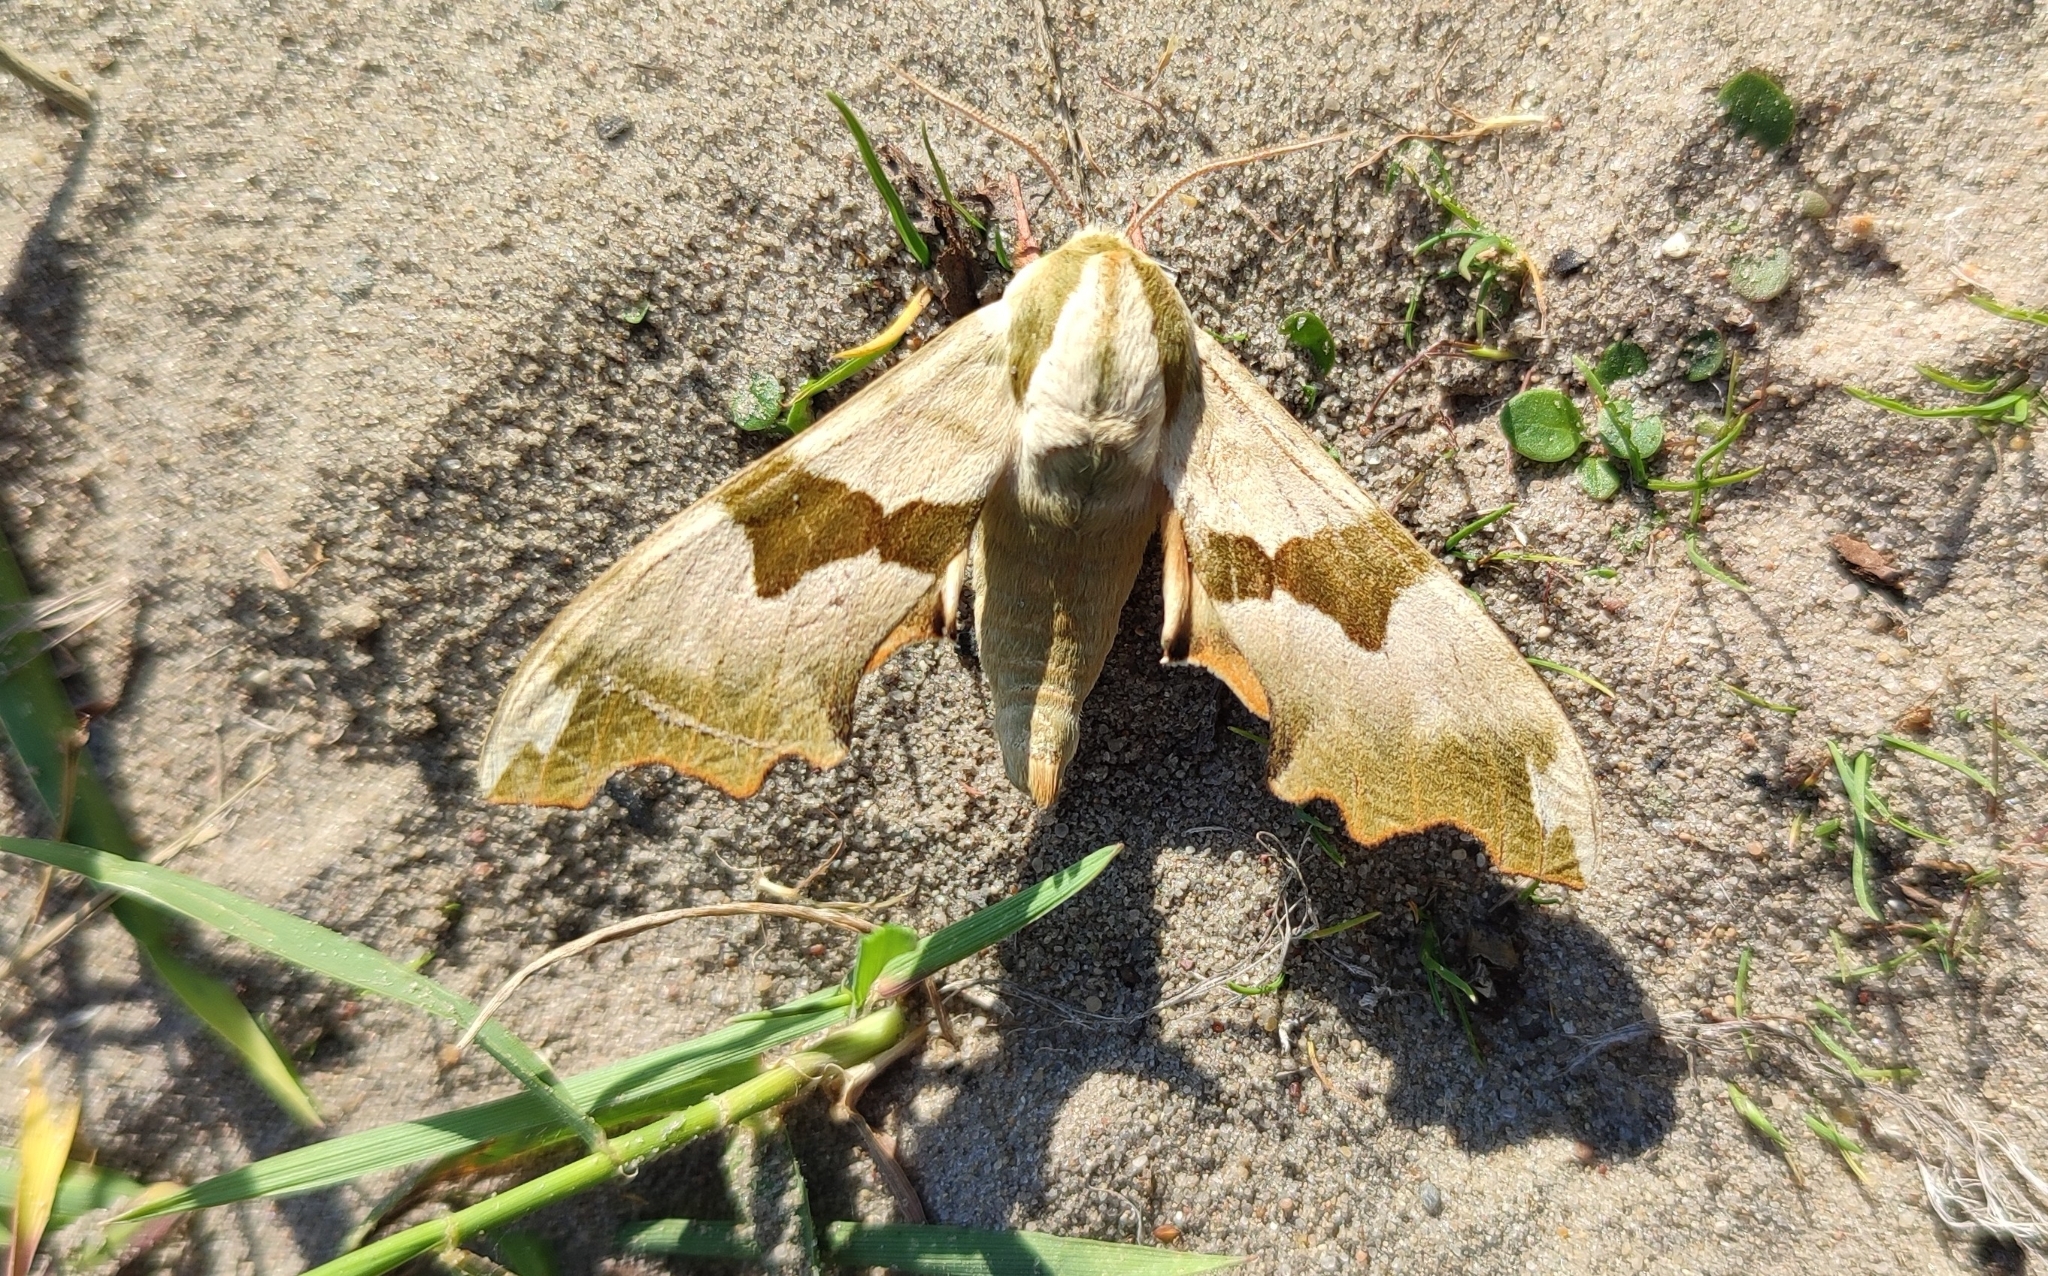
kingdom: Animalia
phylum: Arthropoda
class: Insecta
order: Lepidoptera
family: Sphingidae
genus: Mimas
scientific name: Mimas tiliae
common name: Lime hawk-moth
